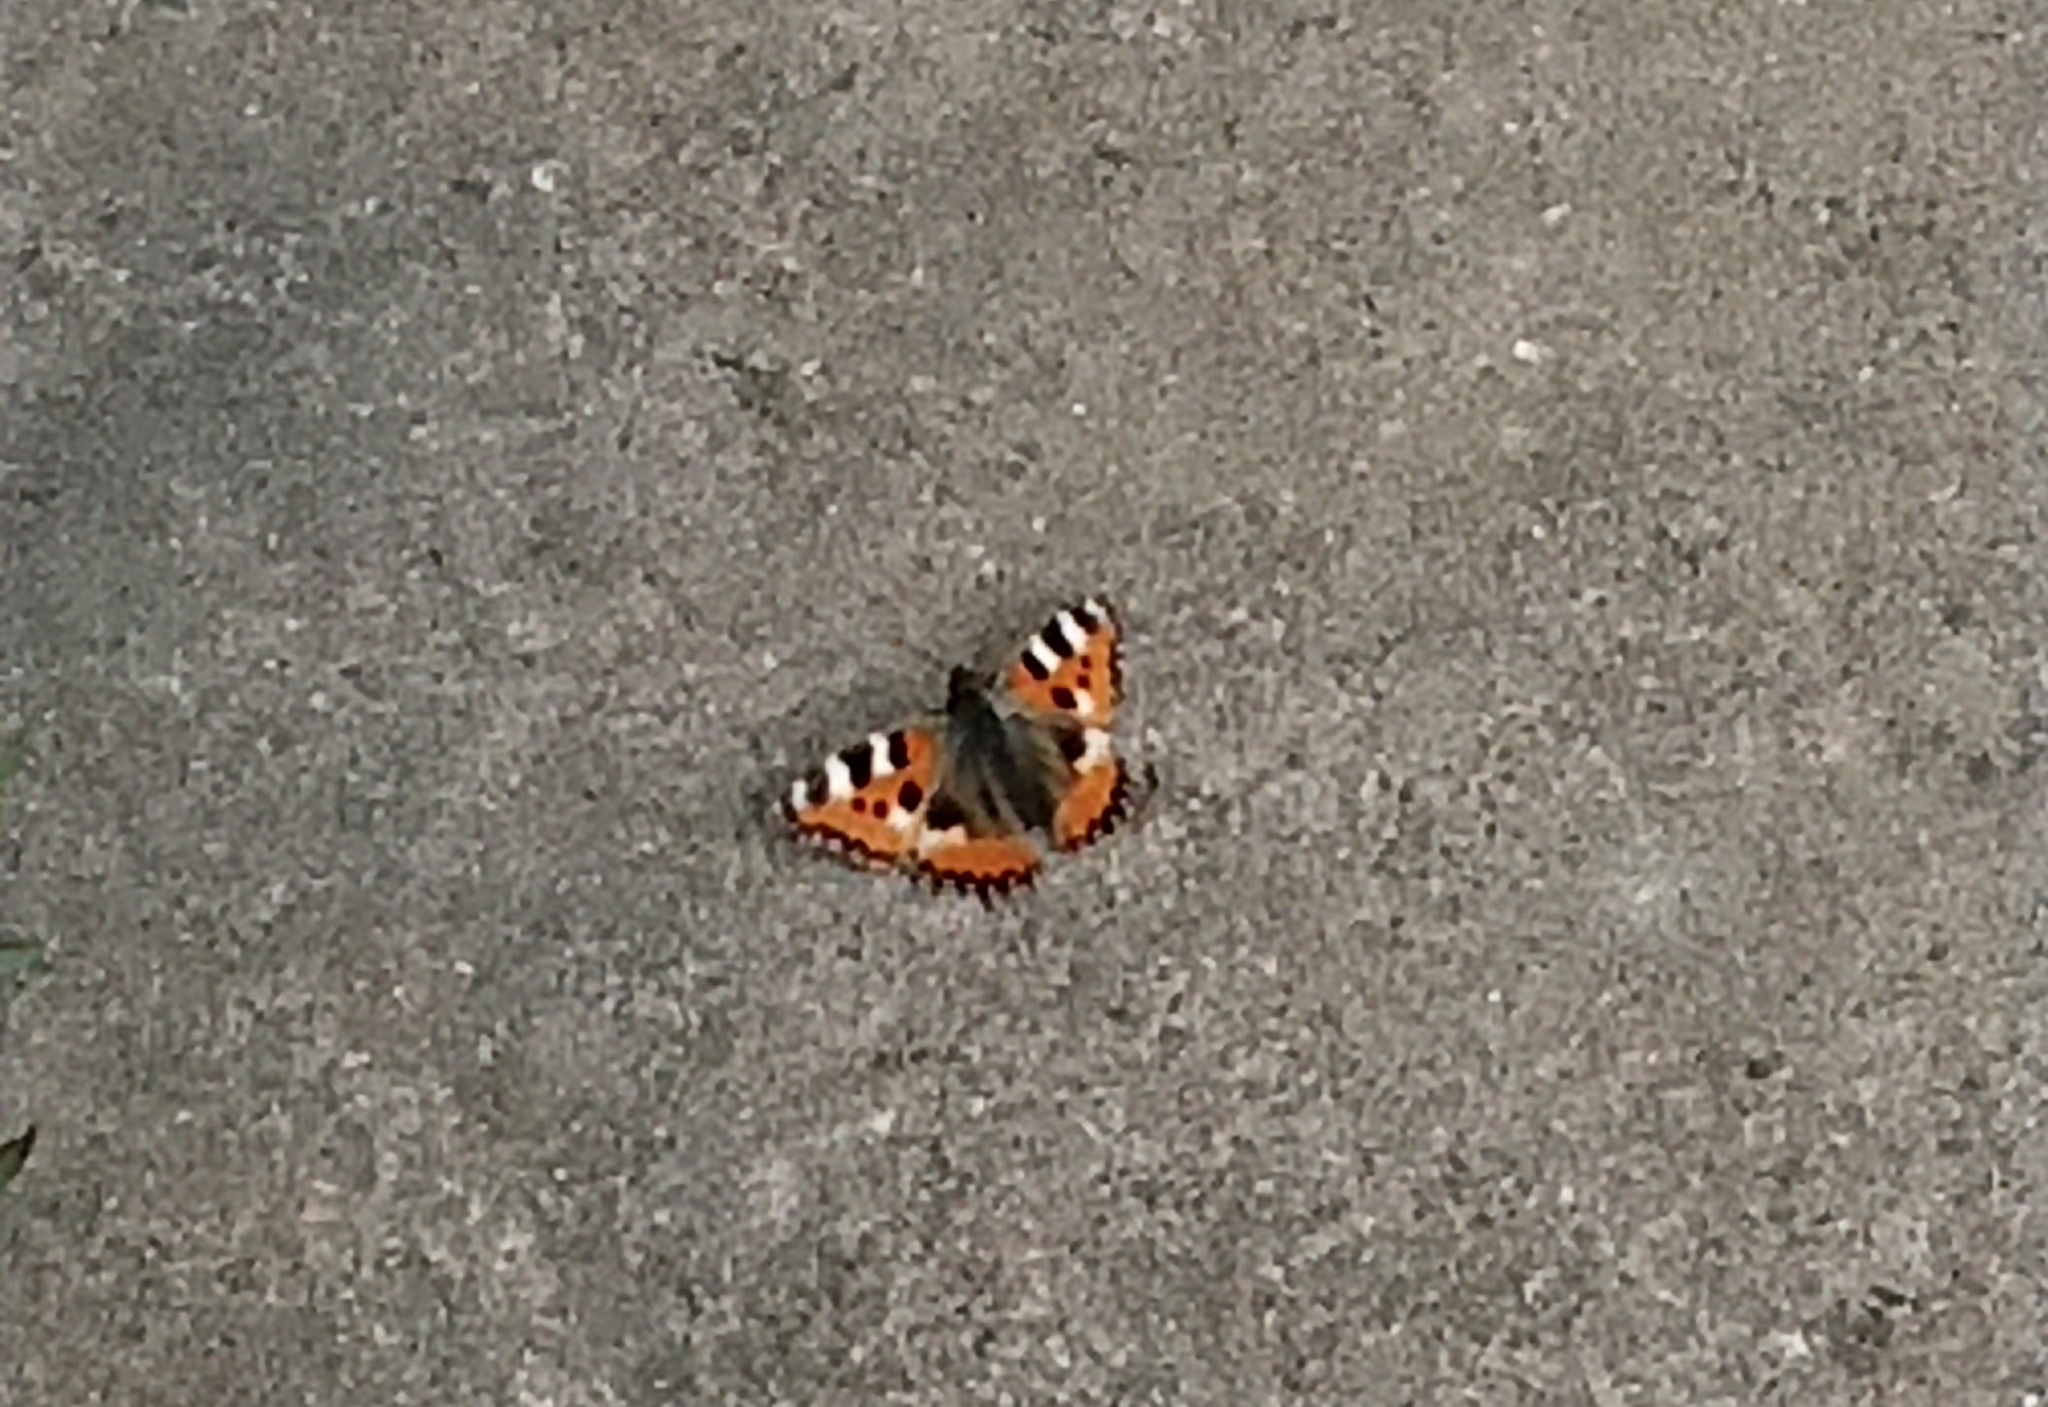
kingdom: Animalia
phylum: Arthropoda
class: Insecta
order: Lepidoptera
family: Nymphalidae
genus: Aglais
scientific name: Aglais urticae
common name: Small tortoiseshell
